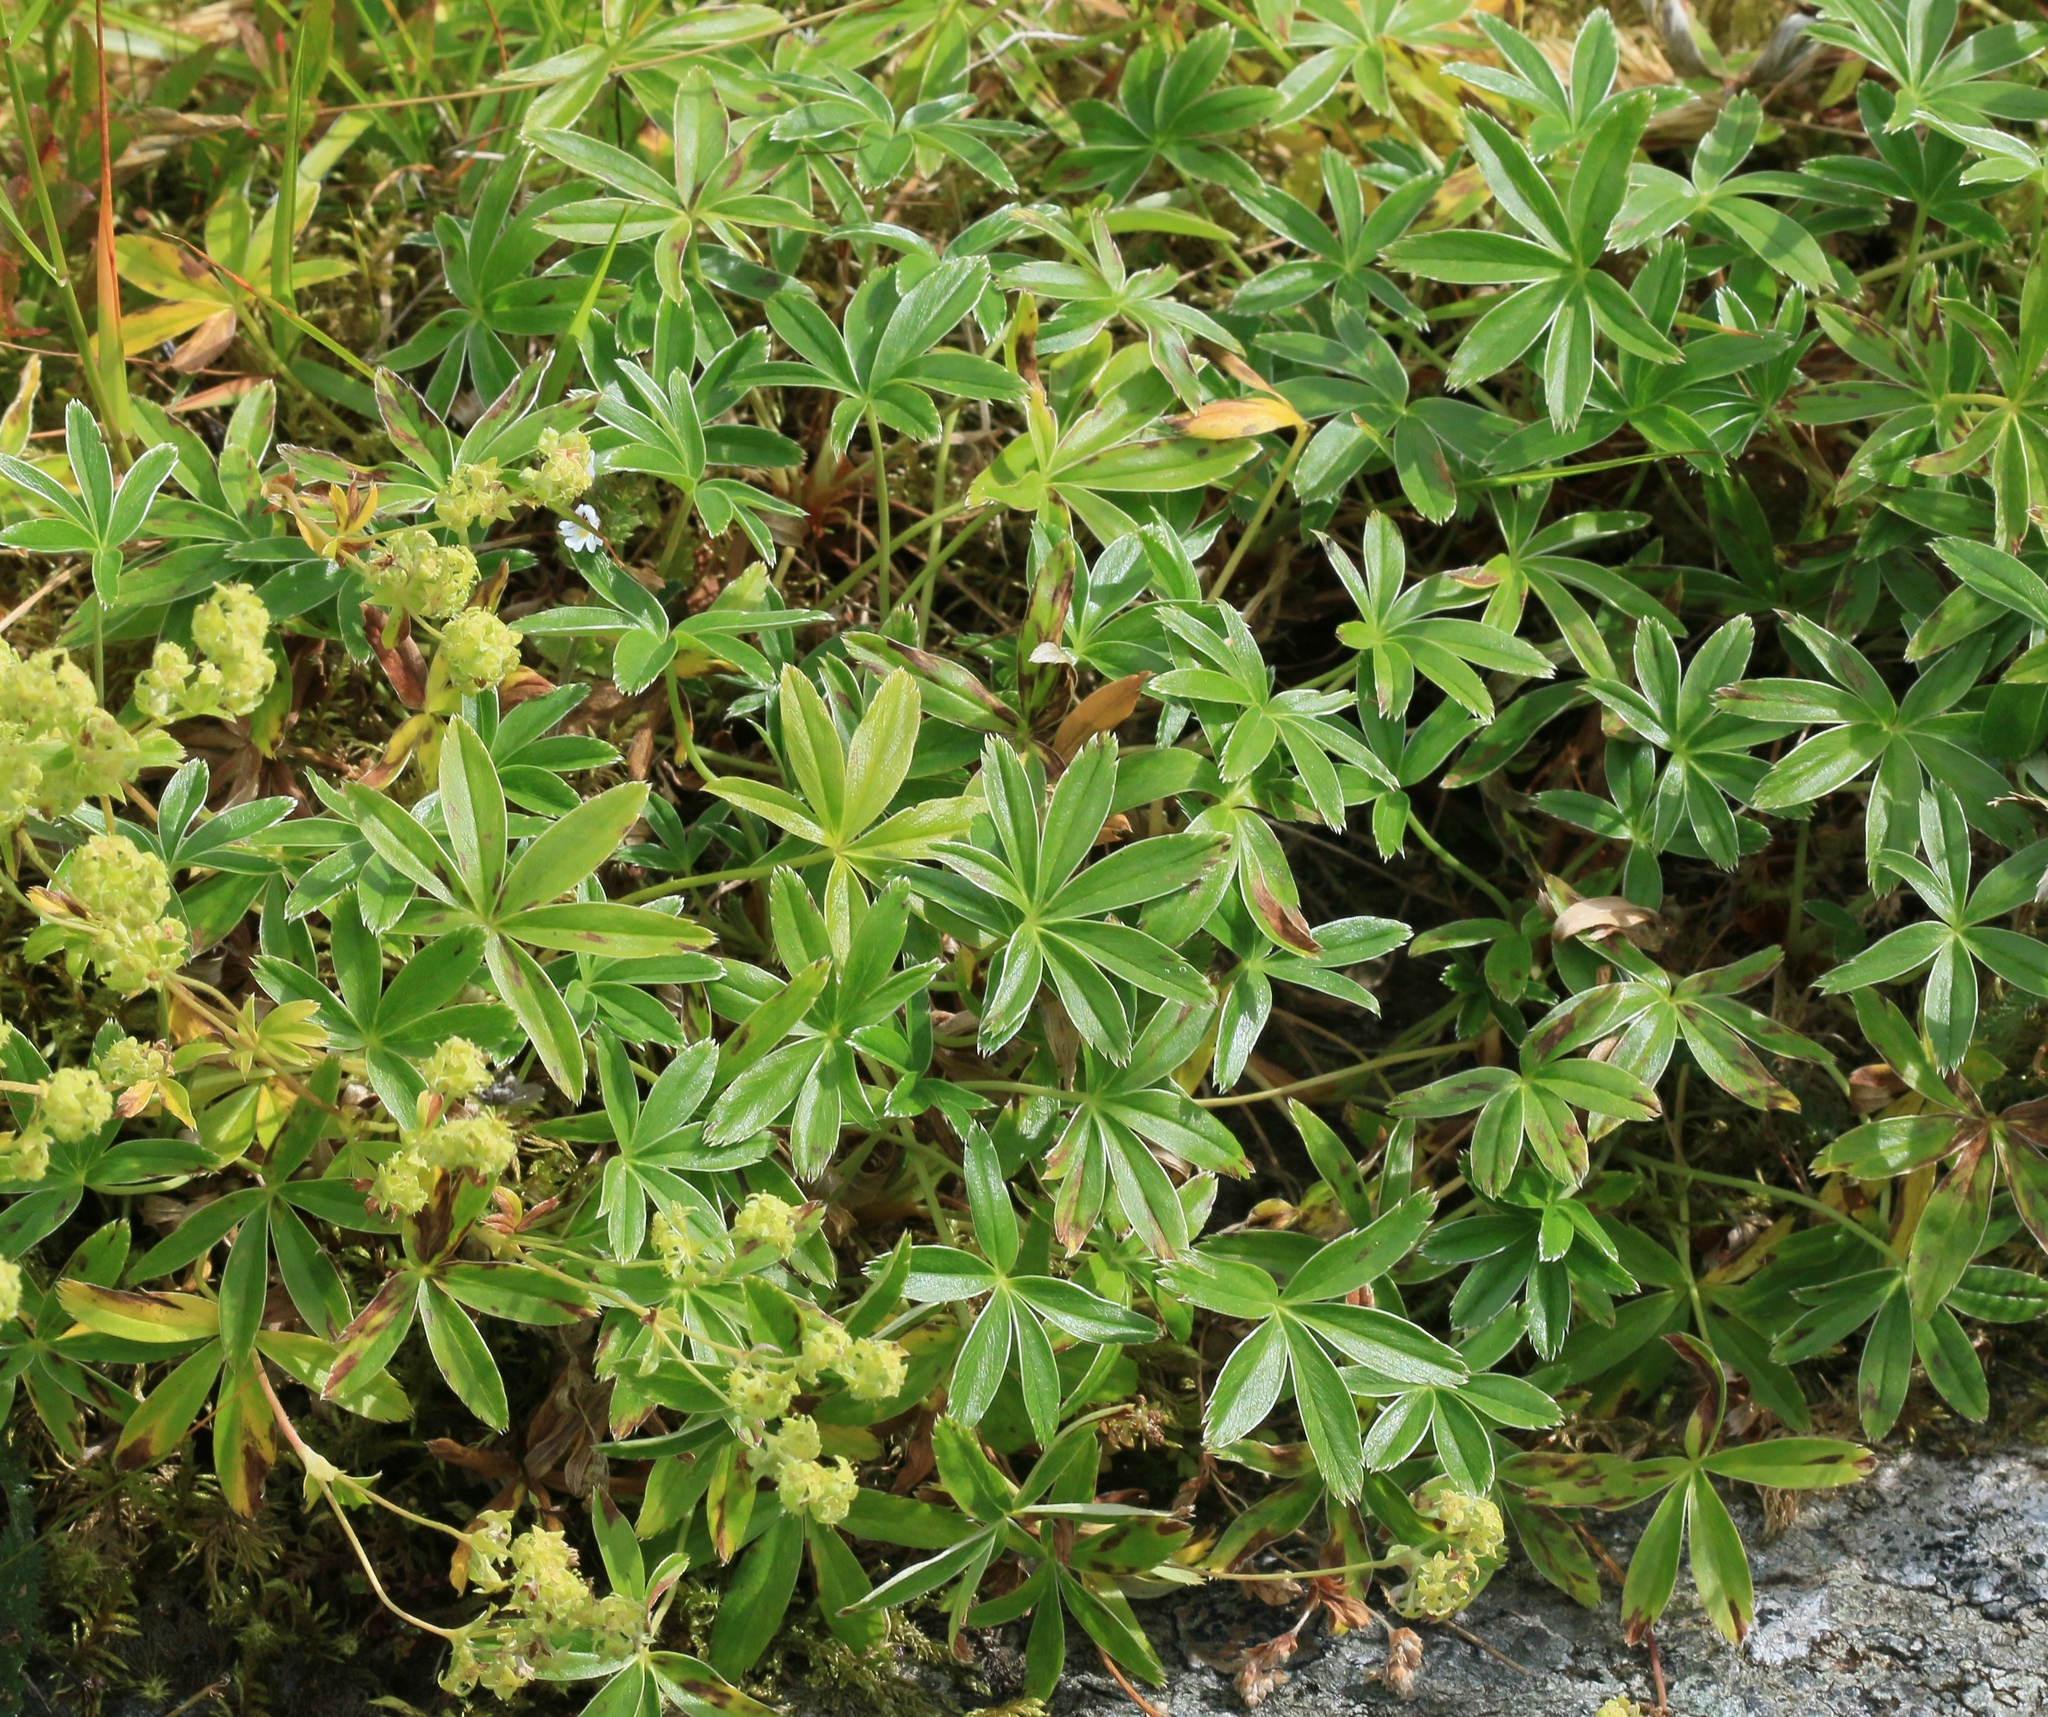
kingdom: Plantae
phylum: Tracheophyta
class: Magnoliopsida
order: Rosales
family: Rosaceae
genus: Alchemilla
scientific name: Alchemilla alpina
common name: Alpine lady's-mantle
